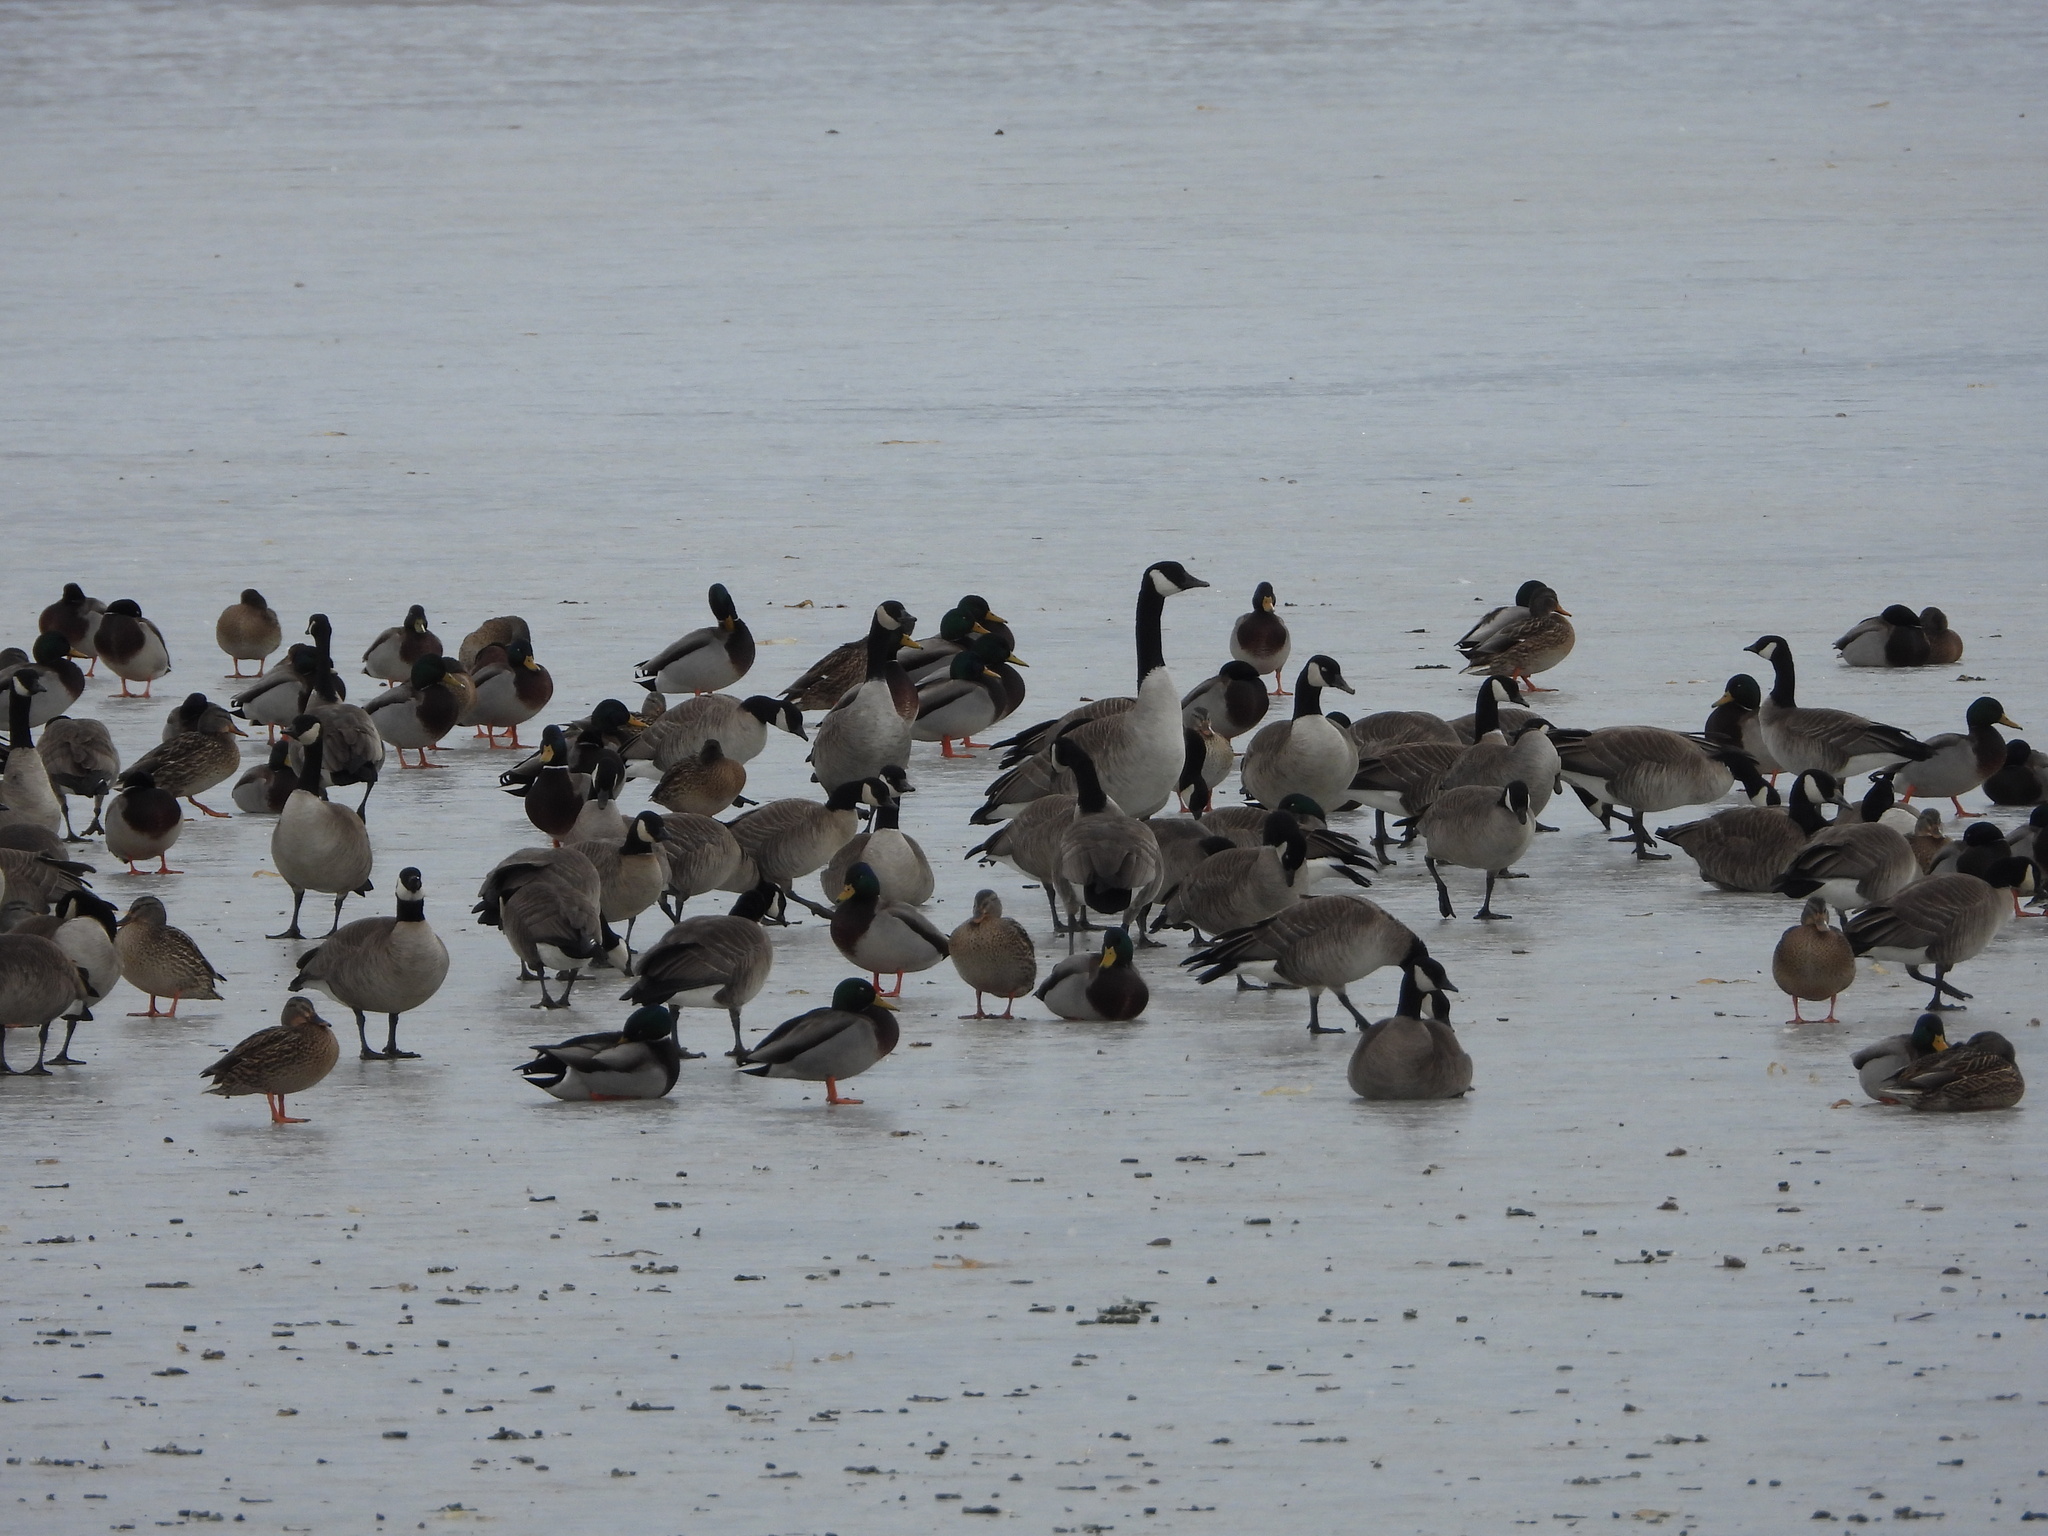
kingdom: Animalia
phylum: Chordata
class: Aves
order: Anseriformes
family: Anatidae
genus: Branta
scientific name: Branta hutchinsii
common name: Cackling goose
